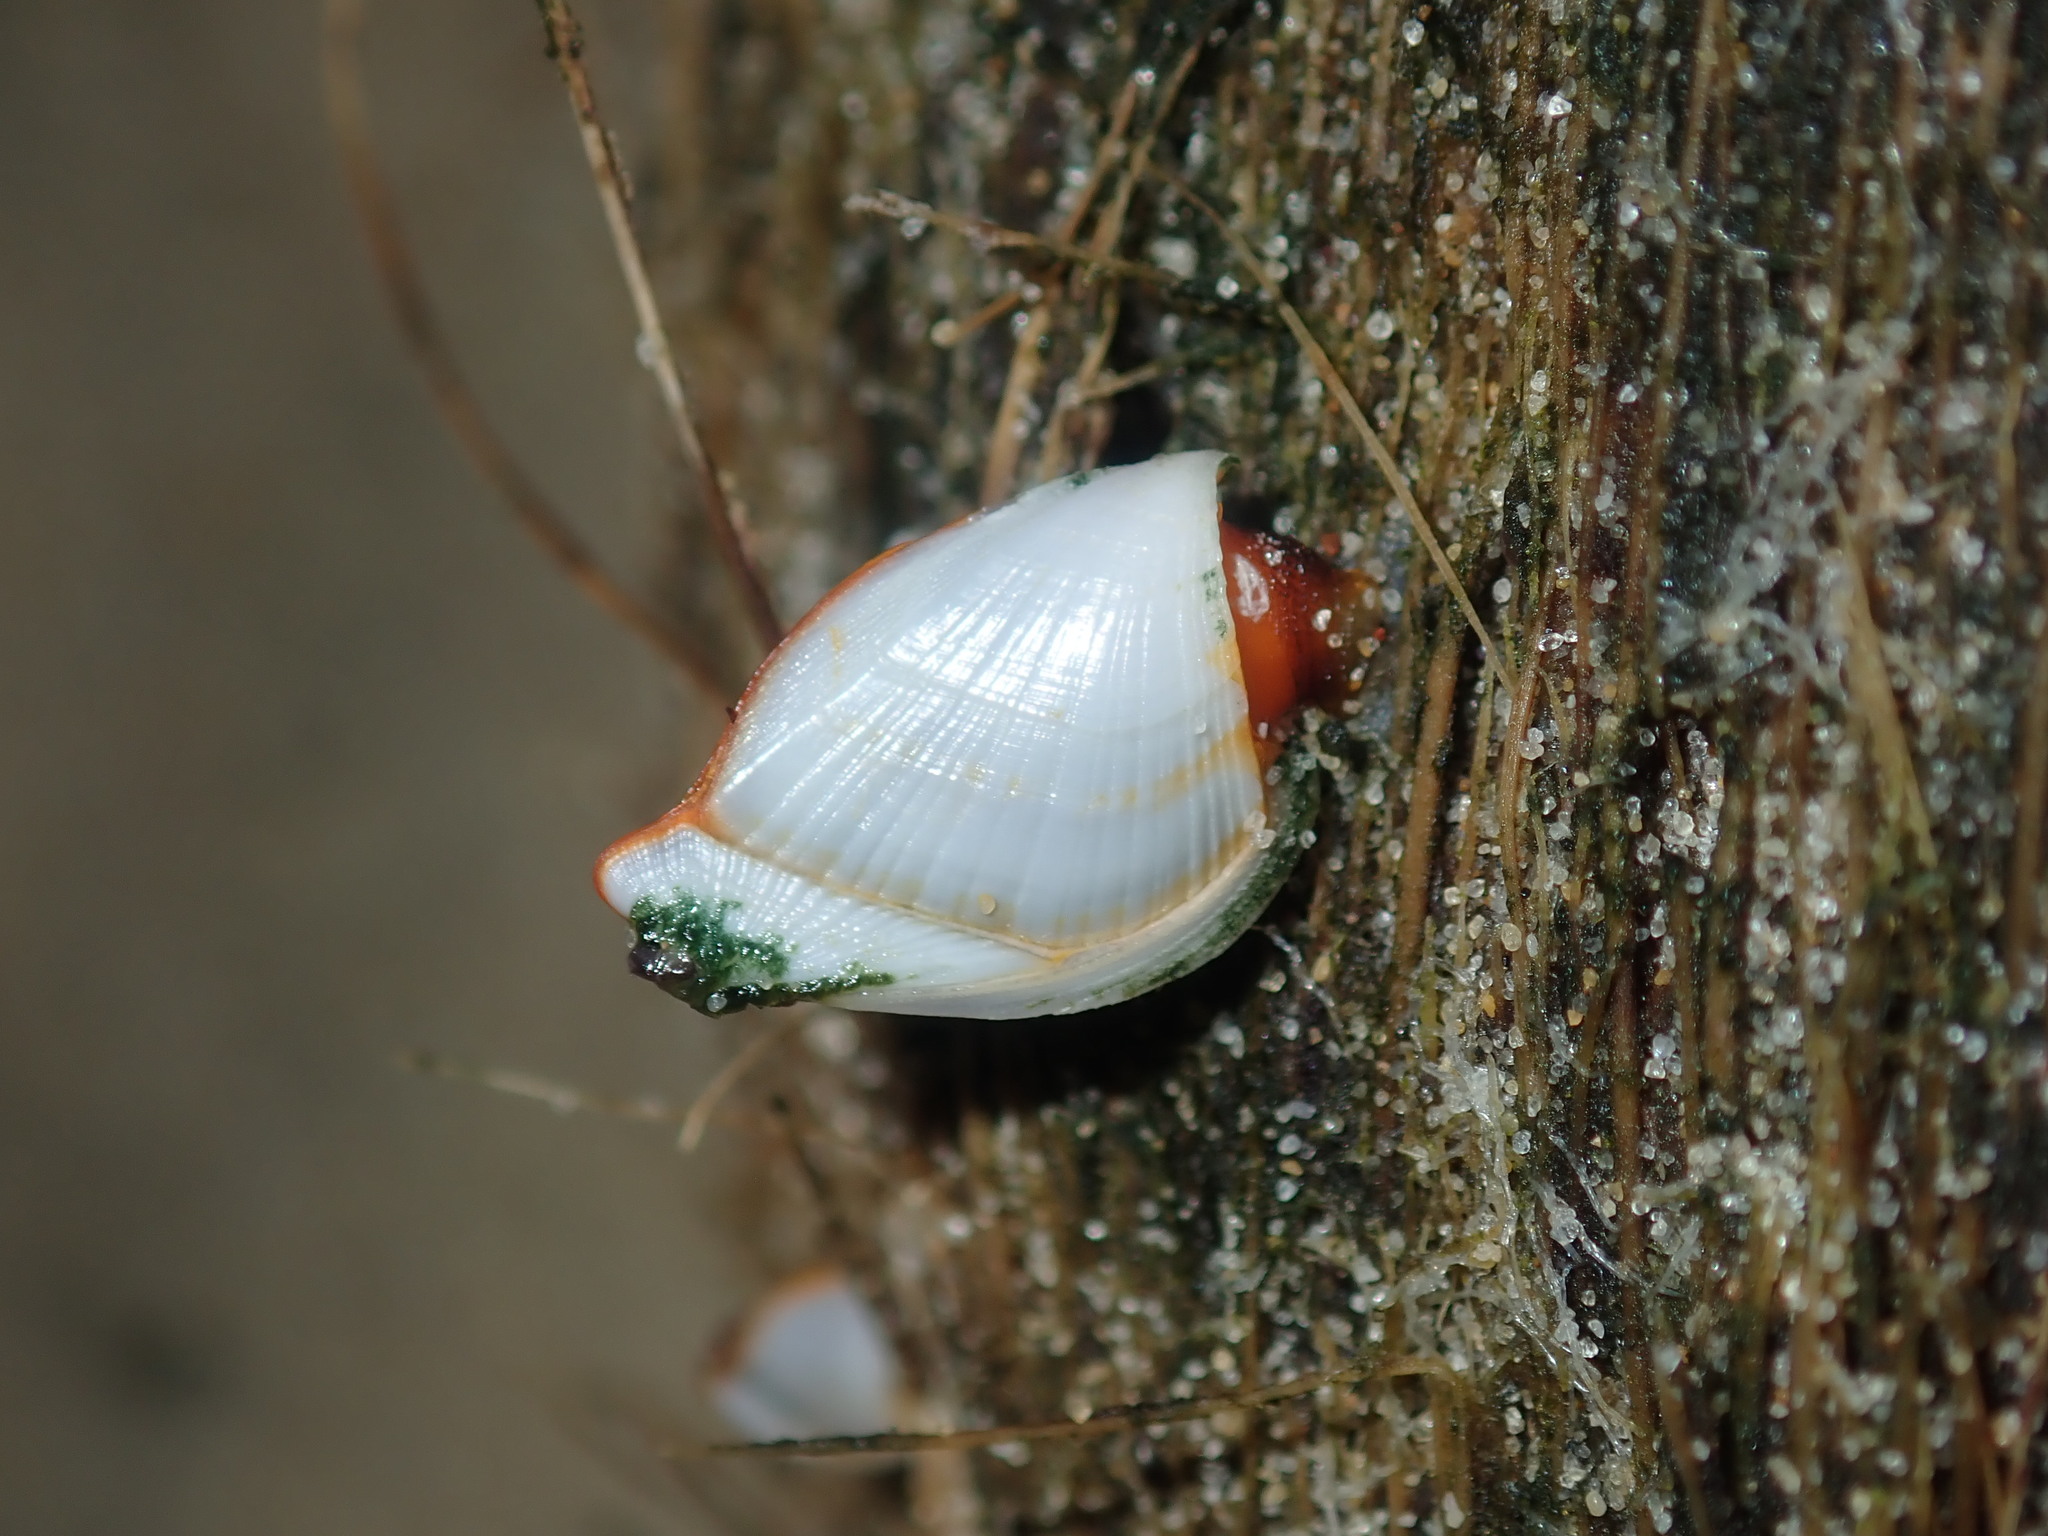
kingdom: Animalia
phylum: Arthropoda
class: Maxillopoda
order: Pedunculata
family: Lepadidae
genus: Lepas
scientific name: Lepas anserifera
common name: Goose barnacle
